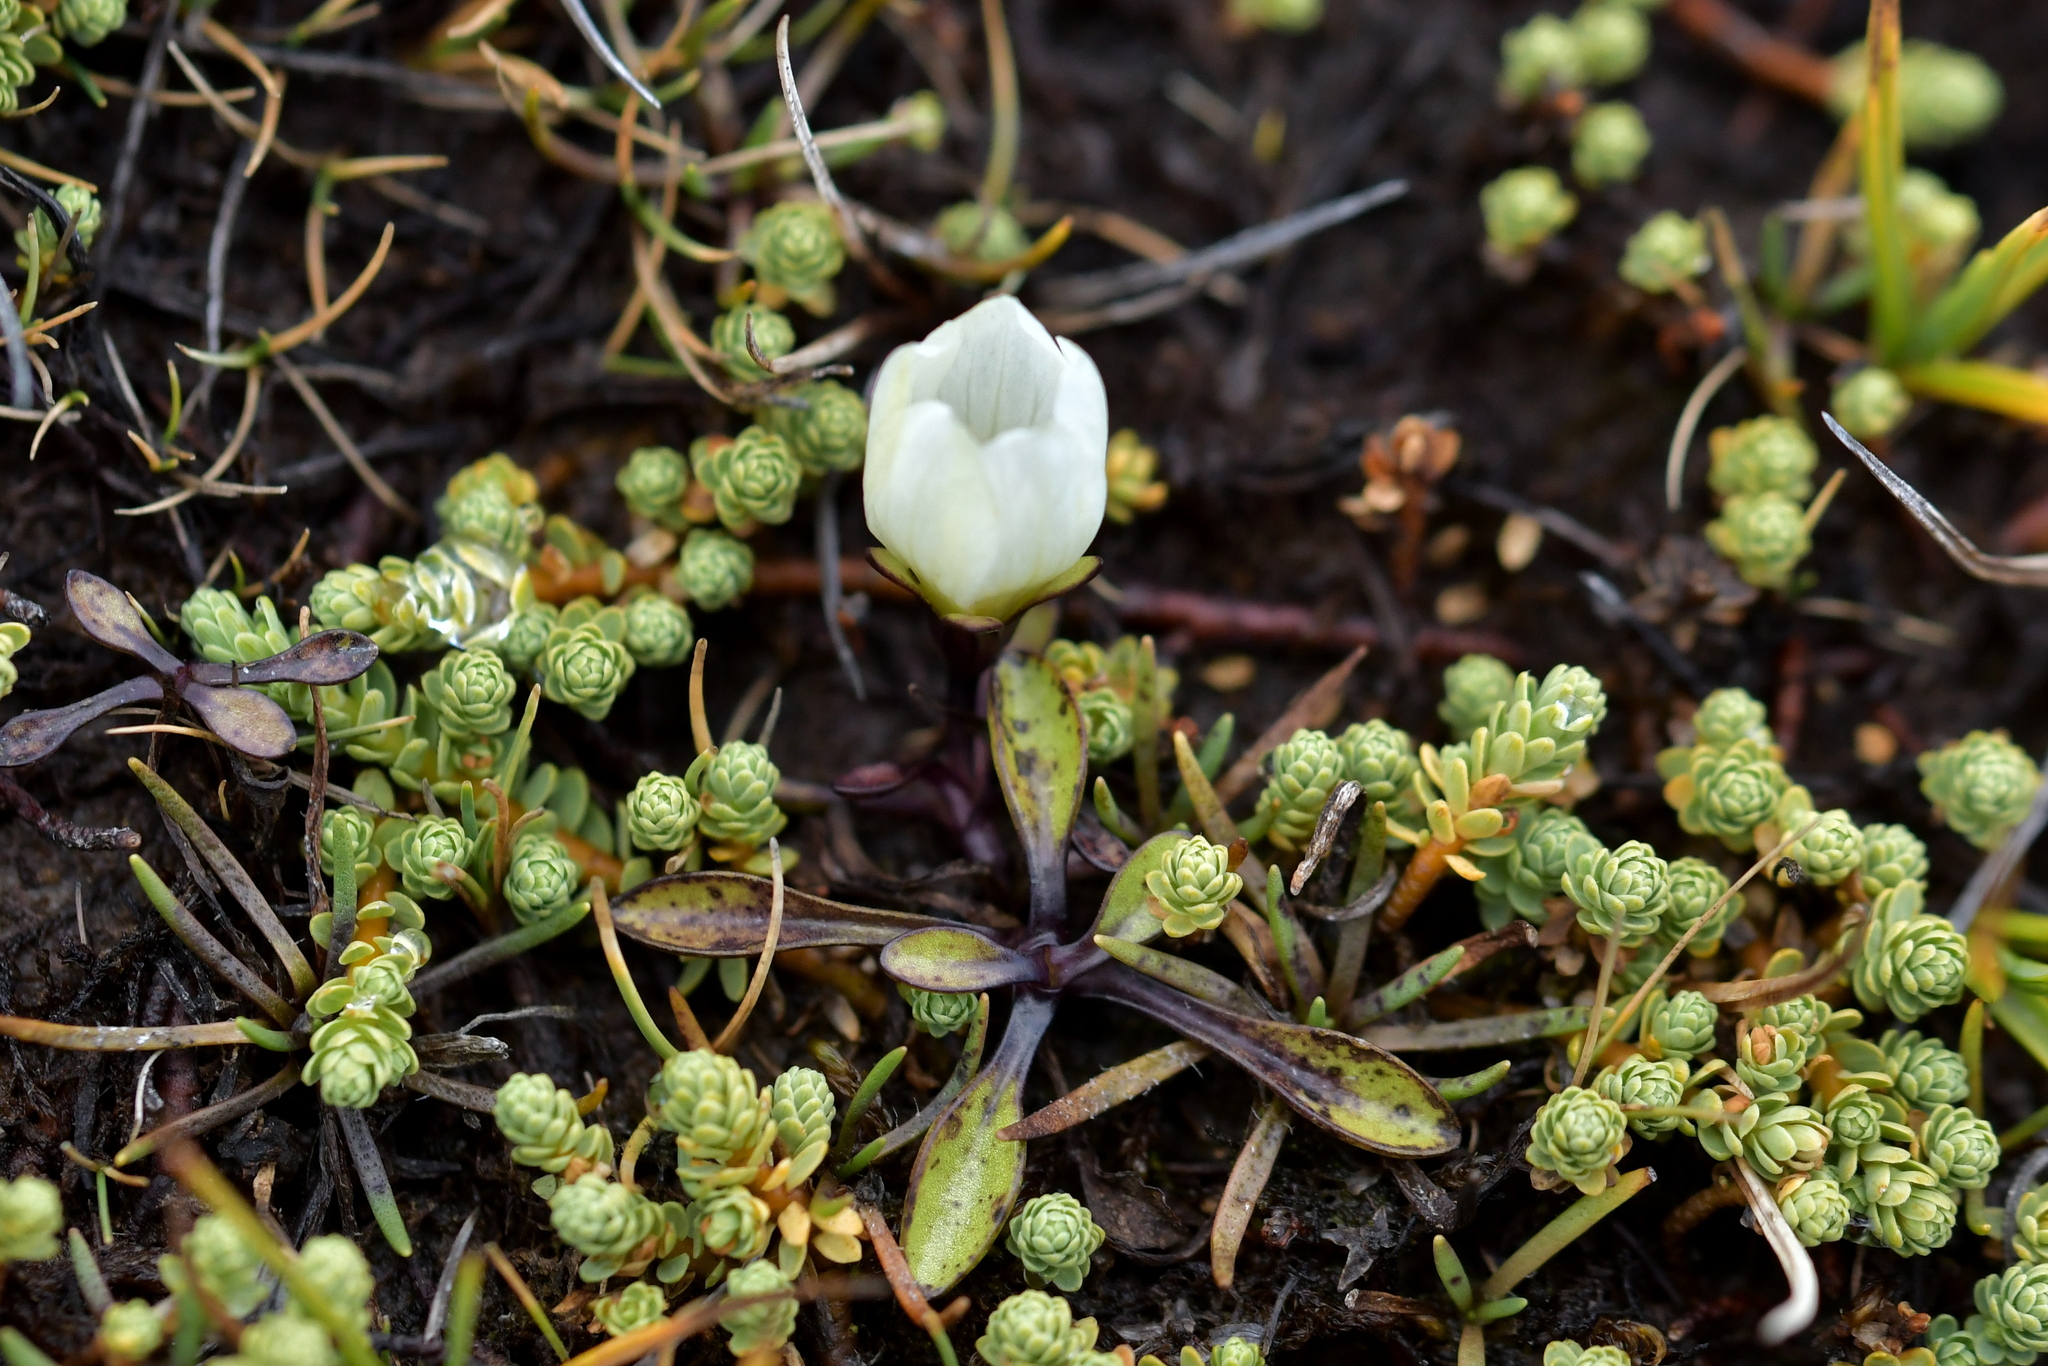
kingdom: Plantae
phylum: Tracheophyta
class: Magnoliopsida
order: Gentianales
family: Gentianaceae
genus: Gentianella
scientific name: Gentianella amabilis
